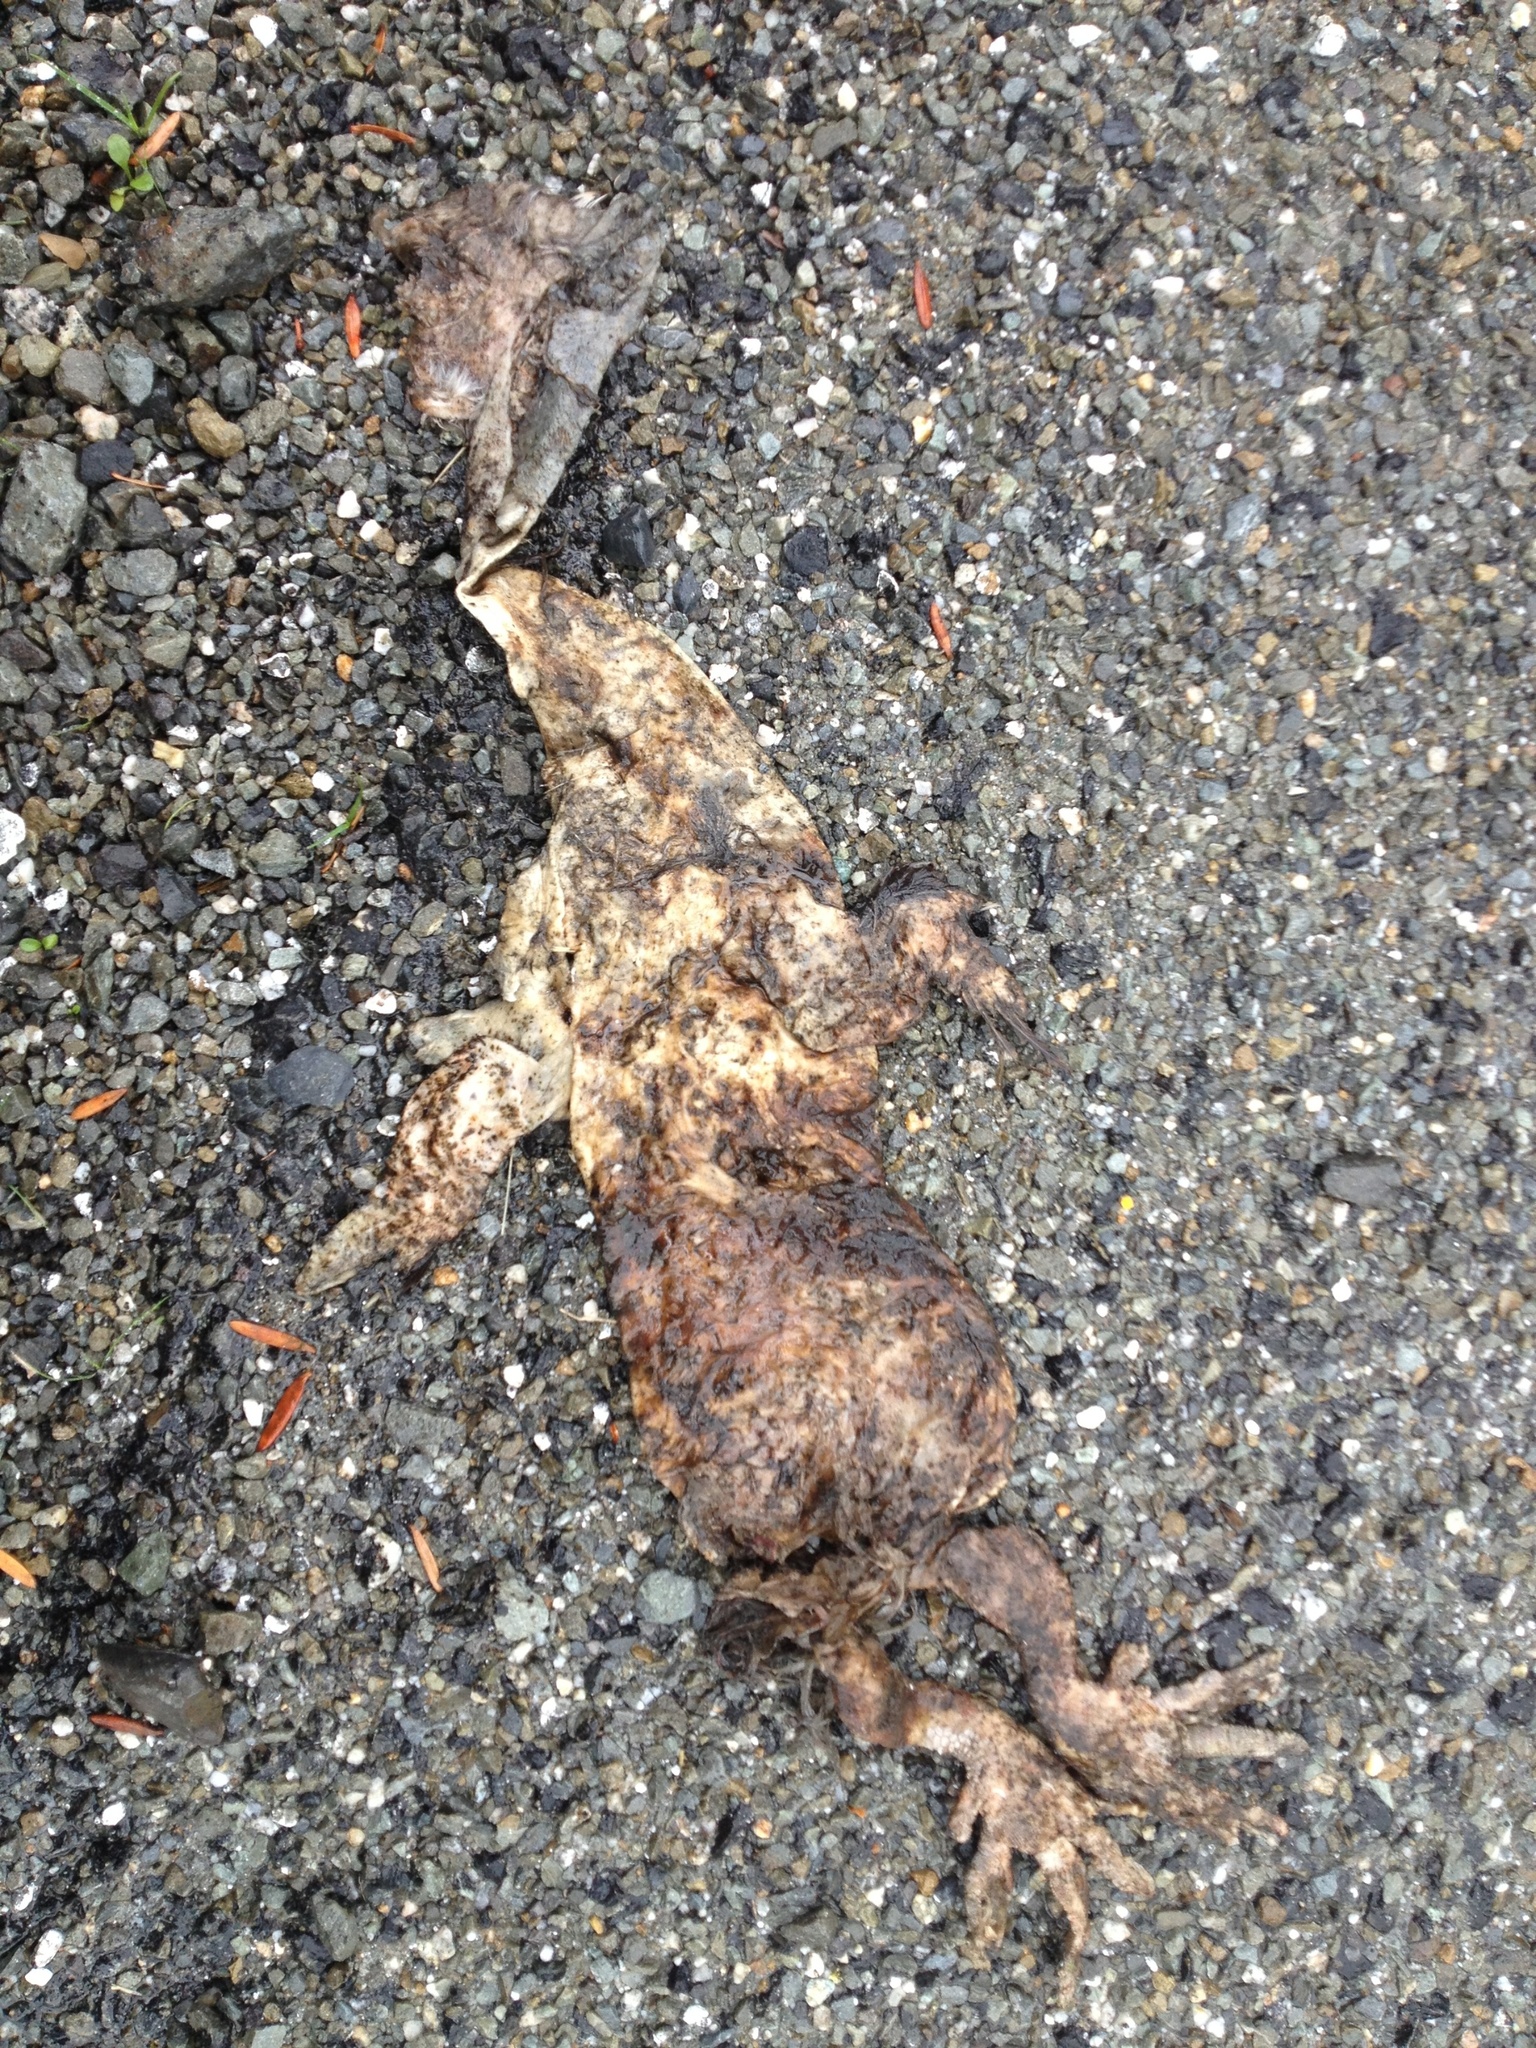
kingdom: Animalia
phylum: Chordata
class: Aves
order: Gruiformes
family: Rallidae
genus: Gallirallus
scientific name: Gallirallus australis
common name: Weka
